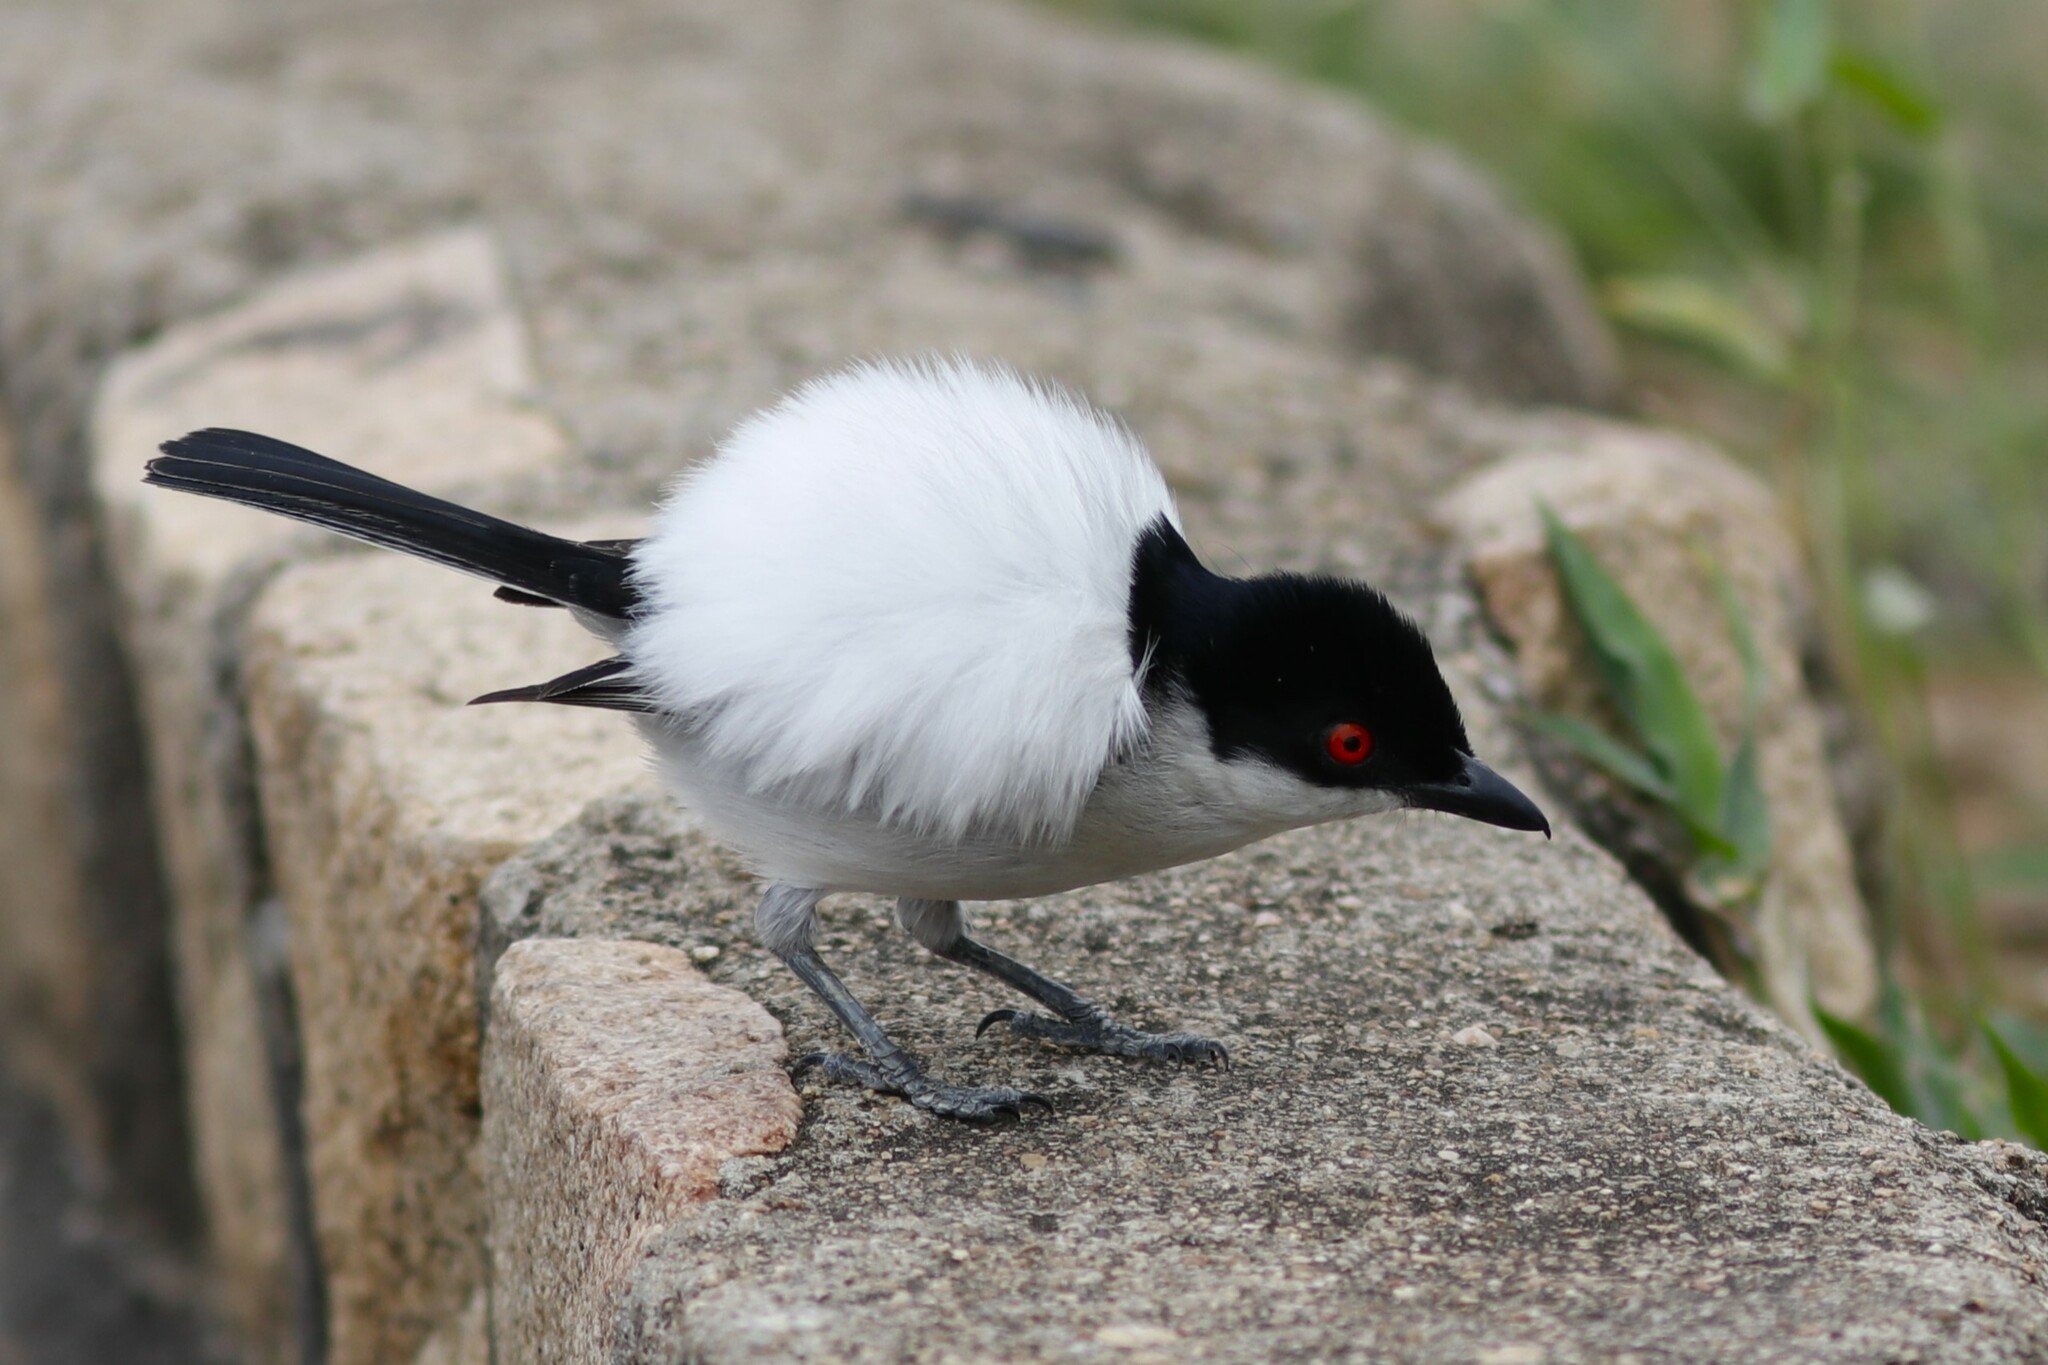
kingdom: Animalia
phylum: Chordata
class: Aves
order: Passeriformes
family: Malaconotidae
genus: Dryoscopus
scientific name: Dryoscopus cubla
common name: Black-backed puffback
